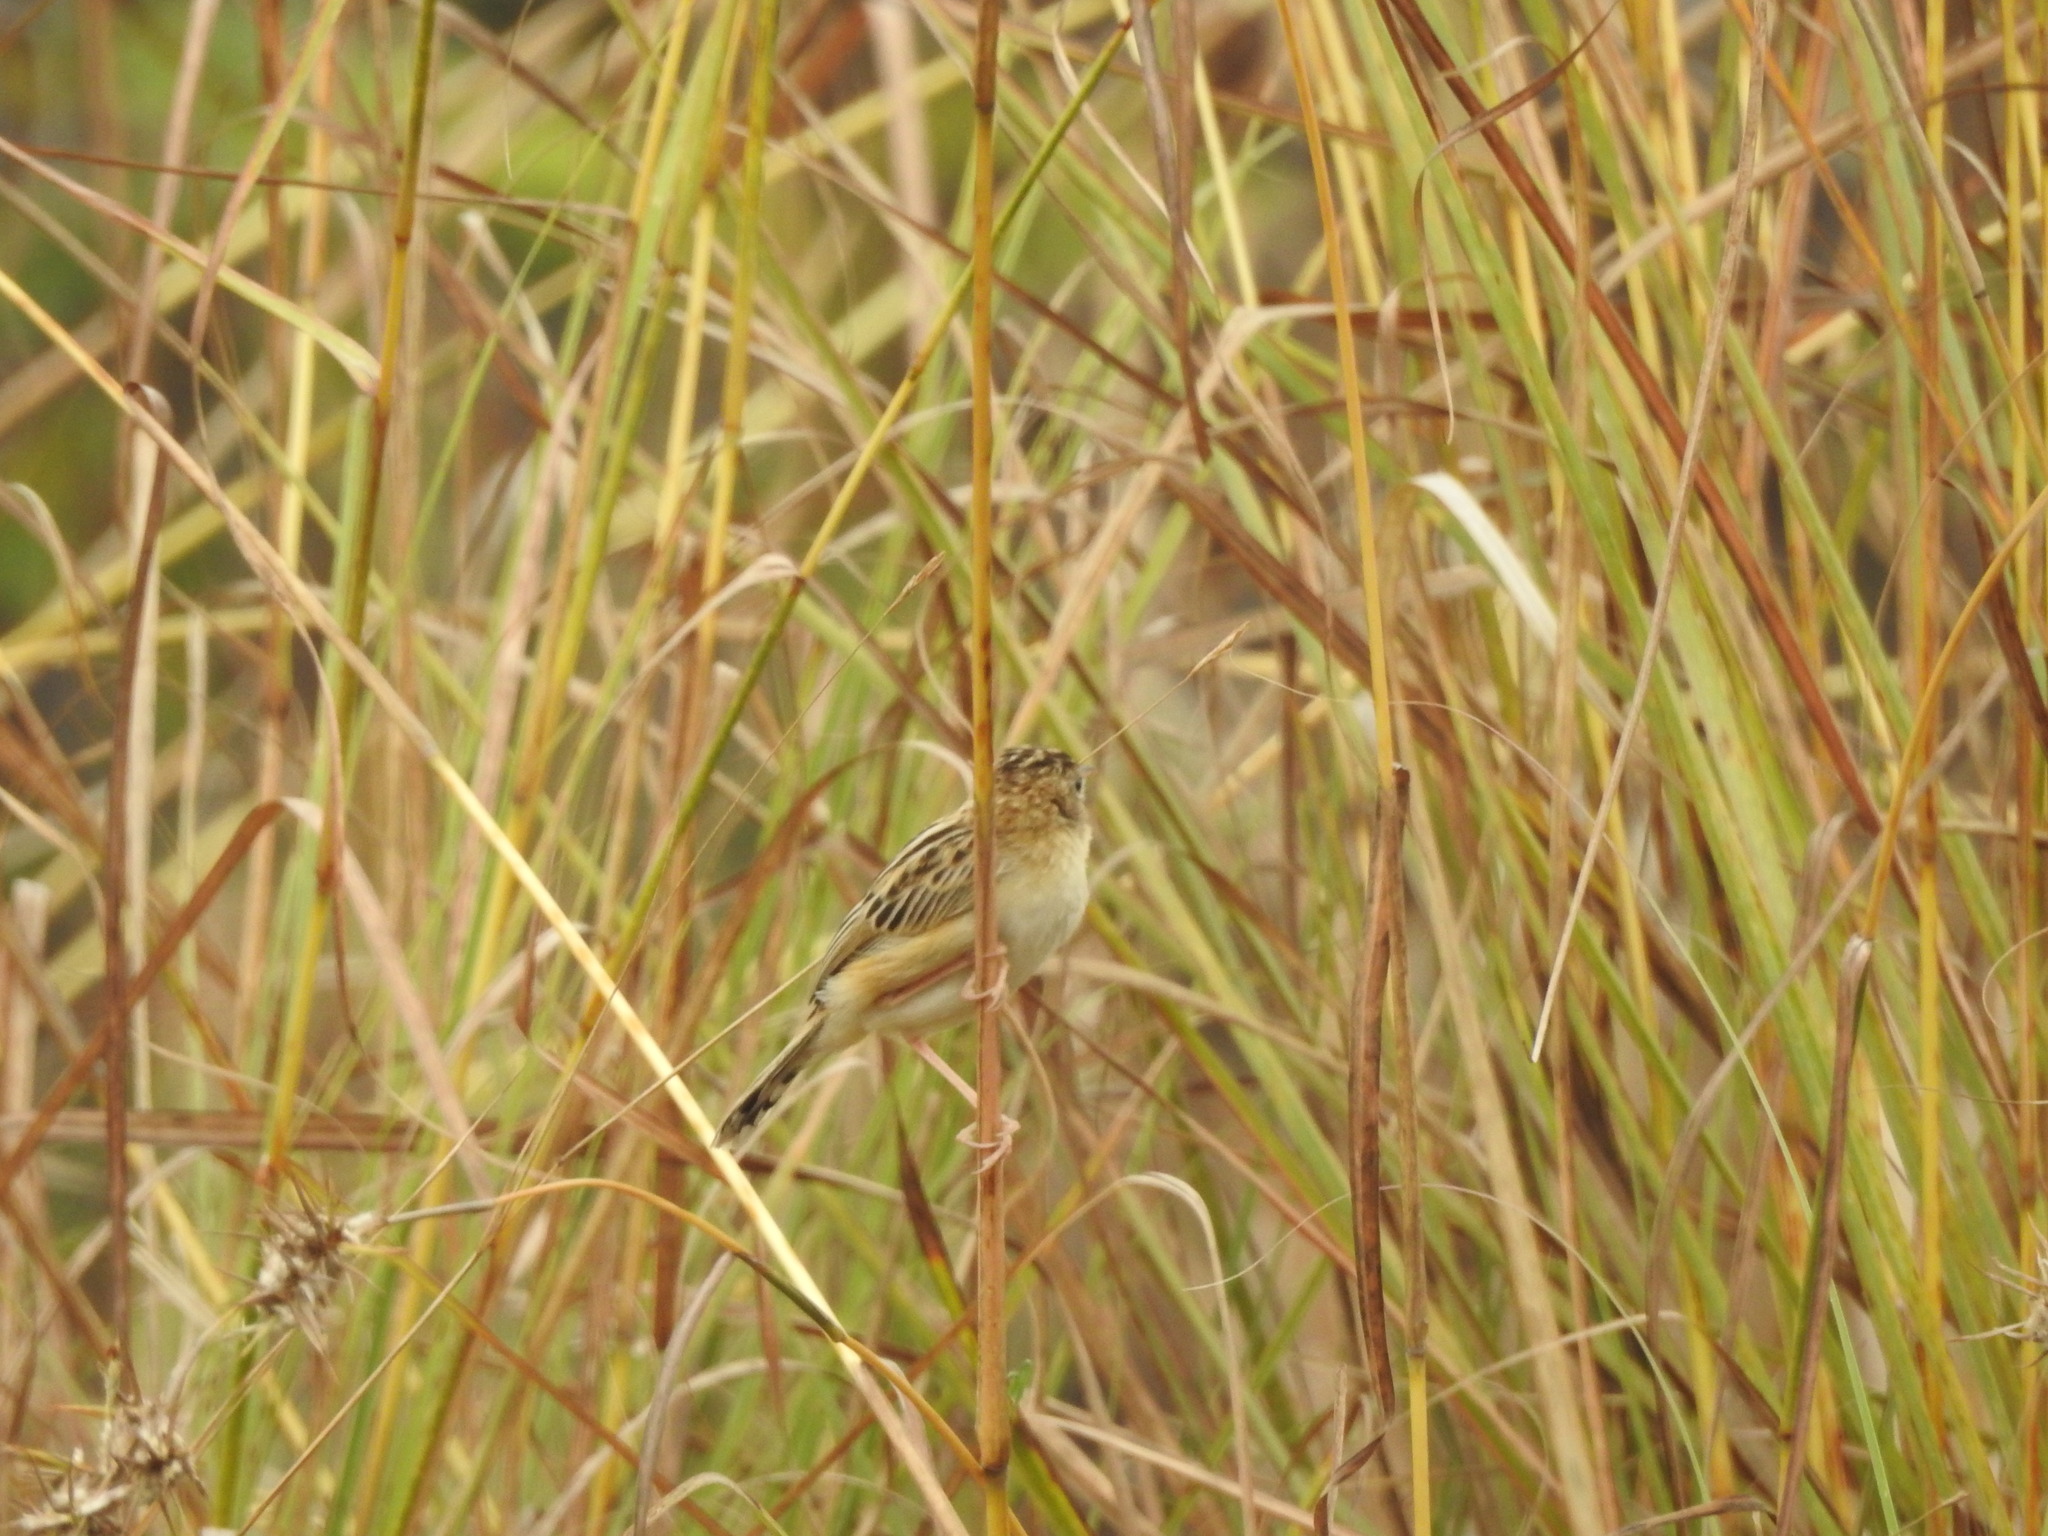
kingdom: Animalia
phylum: Chordata
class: Aves
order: Passeriformes
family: Cisticolidae
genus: Cisticola
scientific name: Cisticola juncidis
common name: Zitting cisticola
